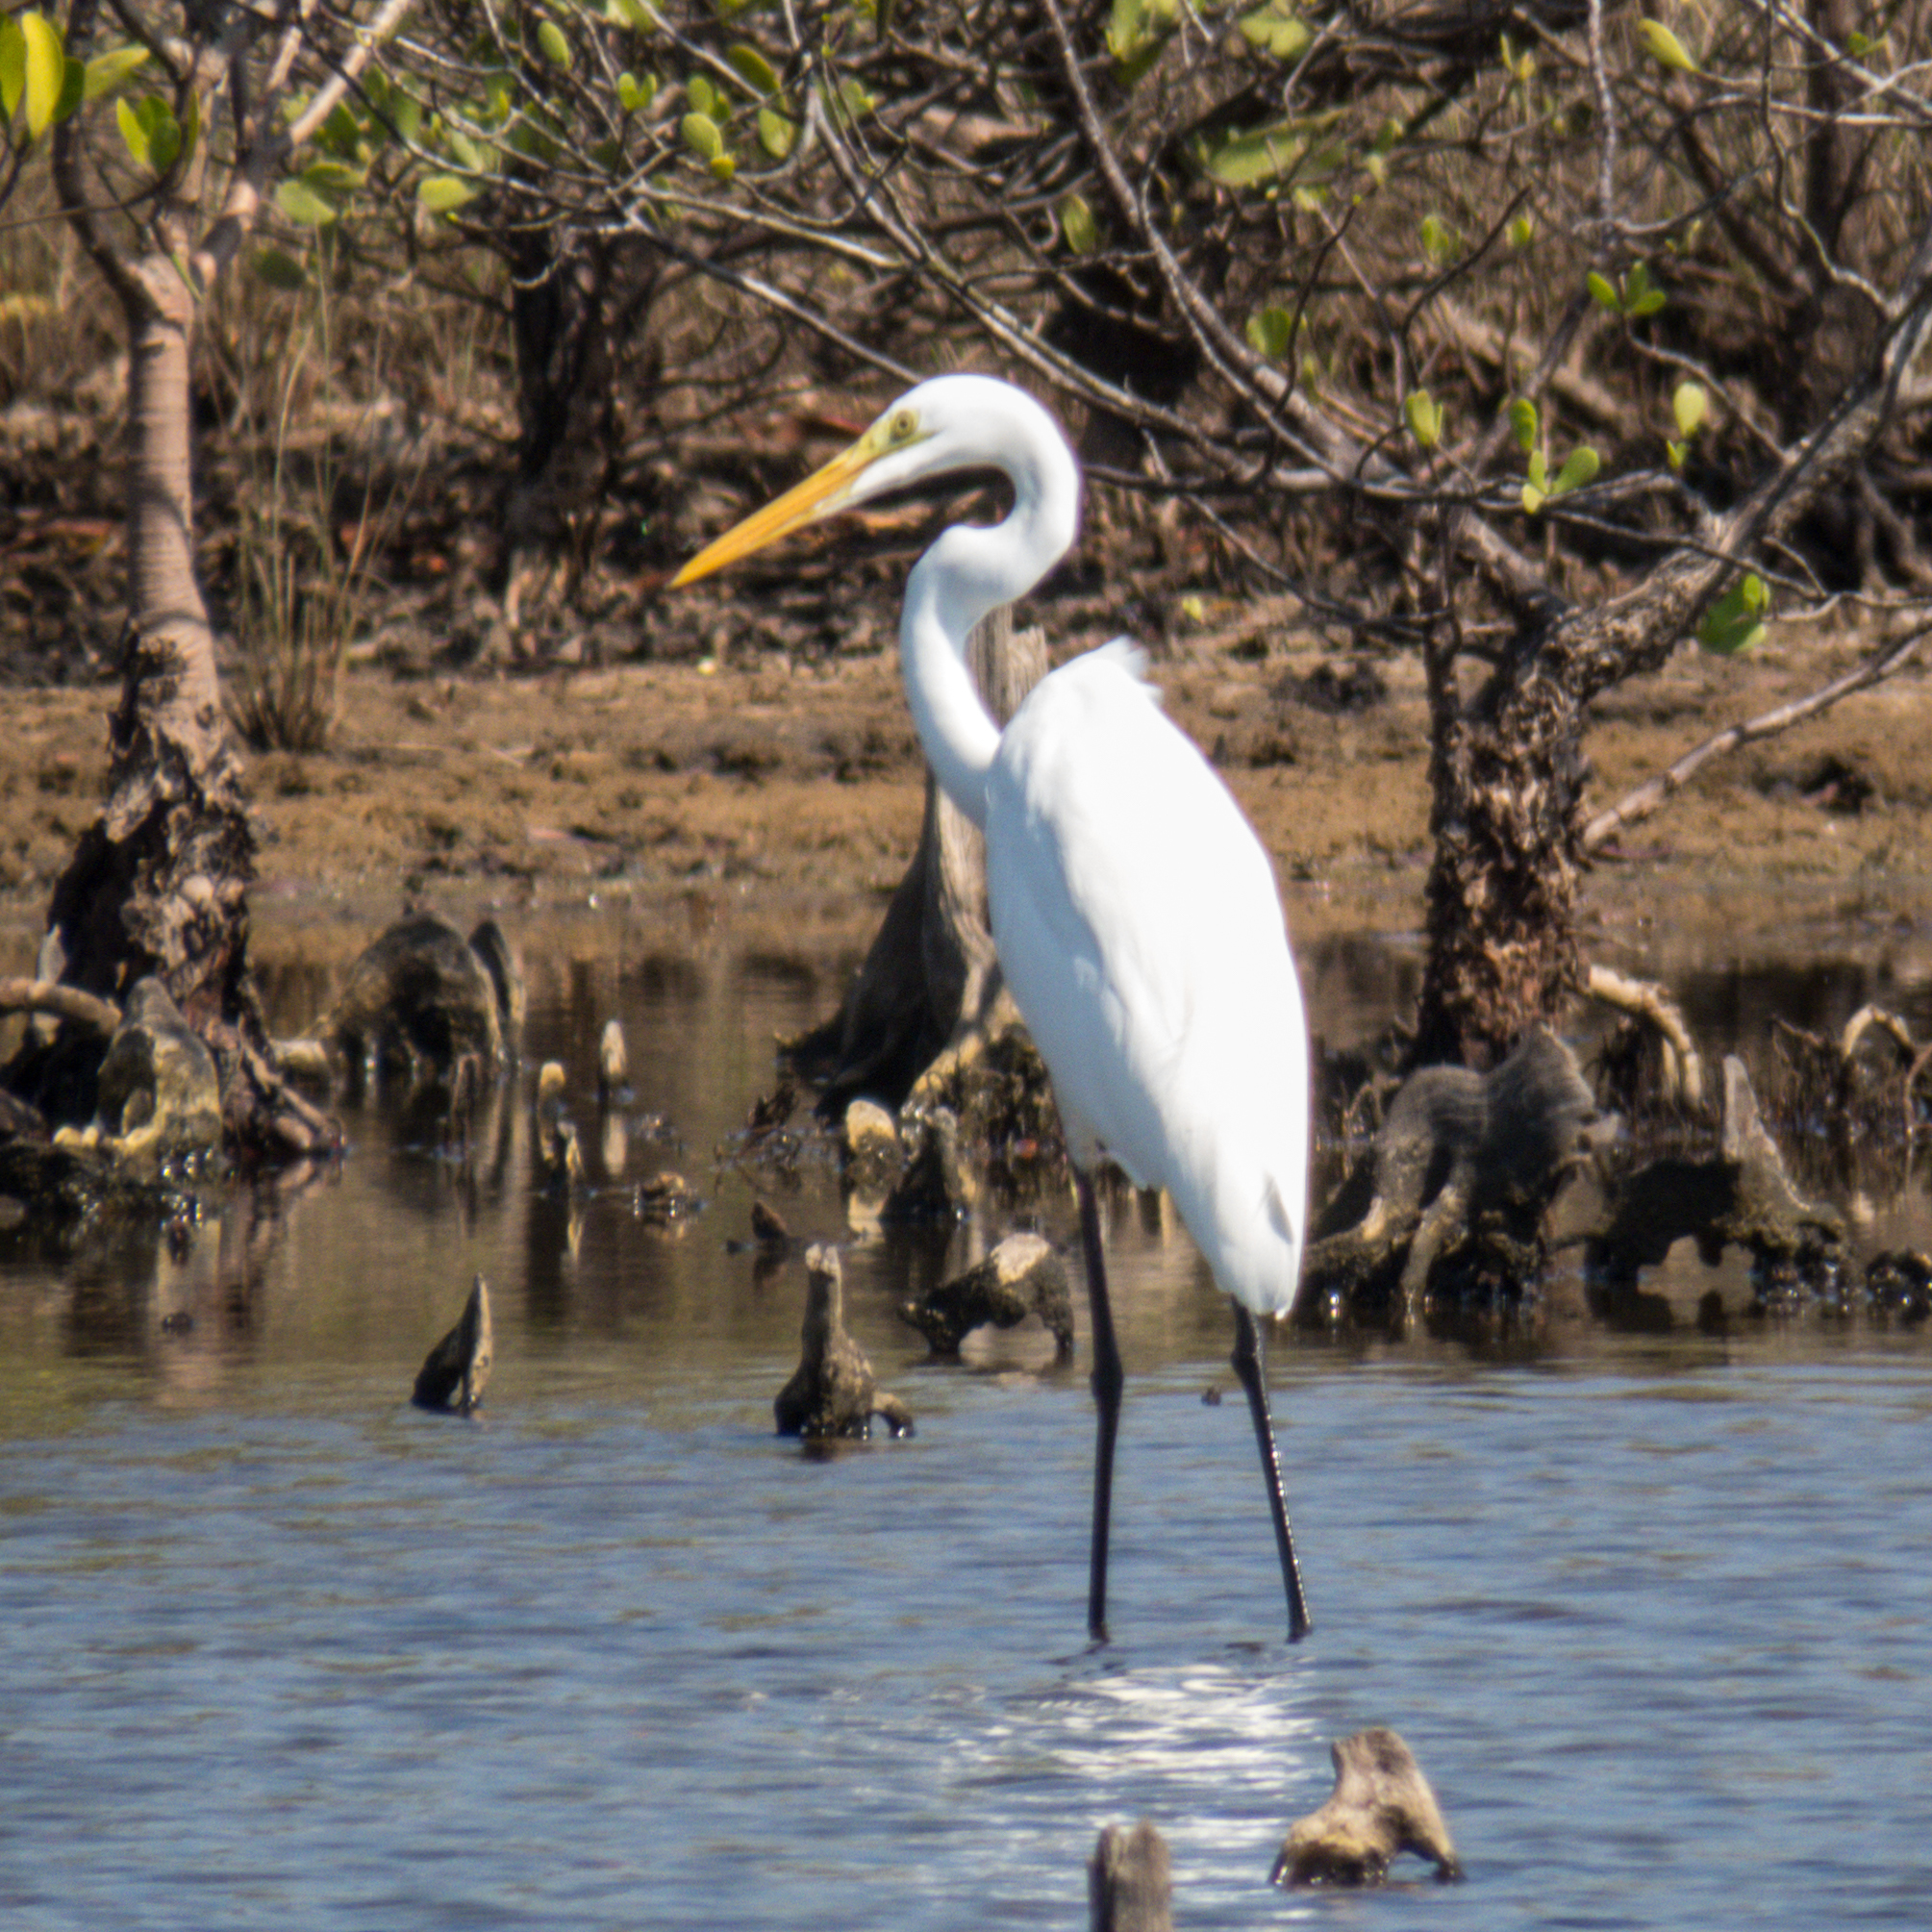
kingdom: Animalia
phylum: Chordata
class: Aves
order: Pelecaniformes
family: Ardeidae
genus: Ardea
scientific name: Ardea alba
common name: Great egret
